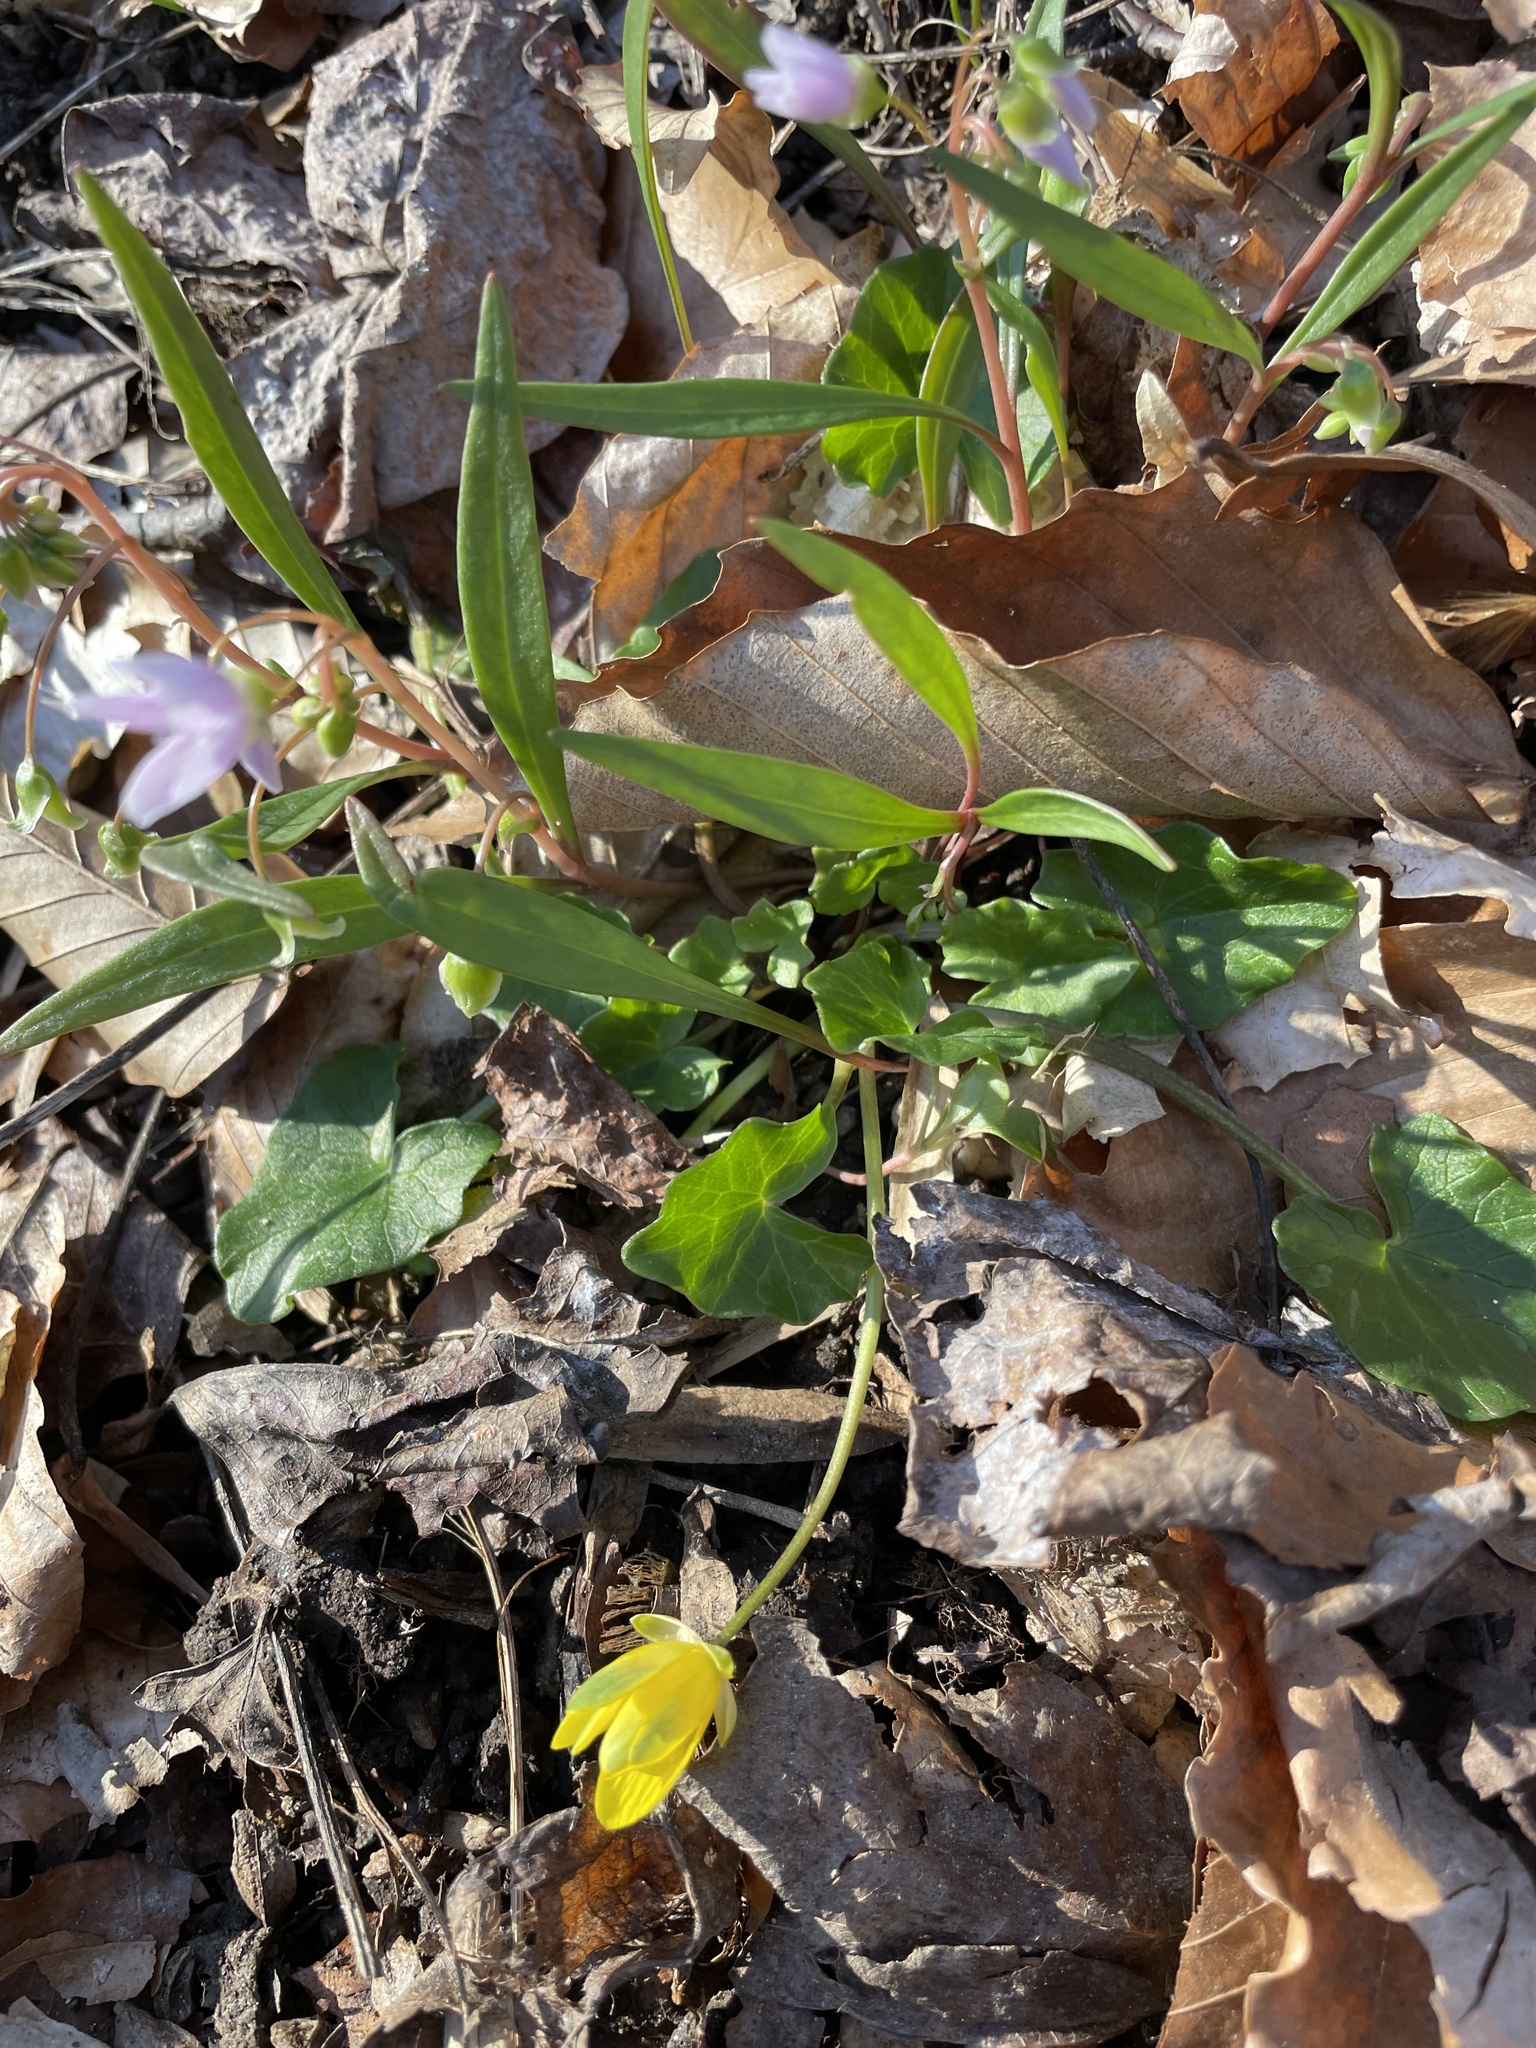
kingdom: Plantae
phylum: Tracheophyta
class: Magnoliopsida
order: Ranunculales
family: Ranunculaceae
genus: Ficaria
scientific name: Ficaria verna
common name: Lesser celandine
